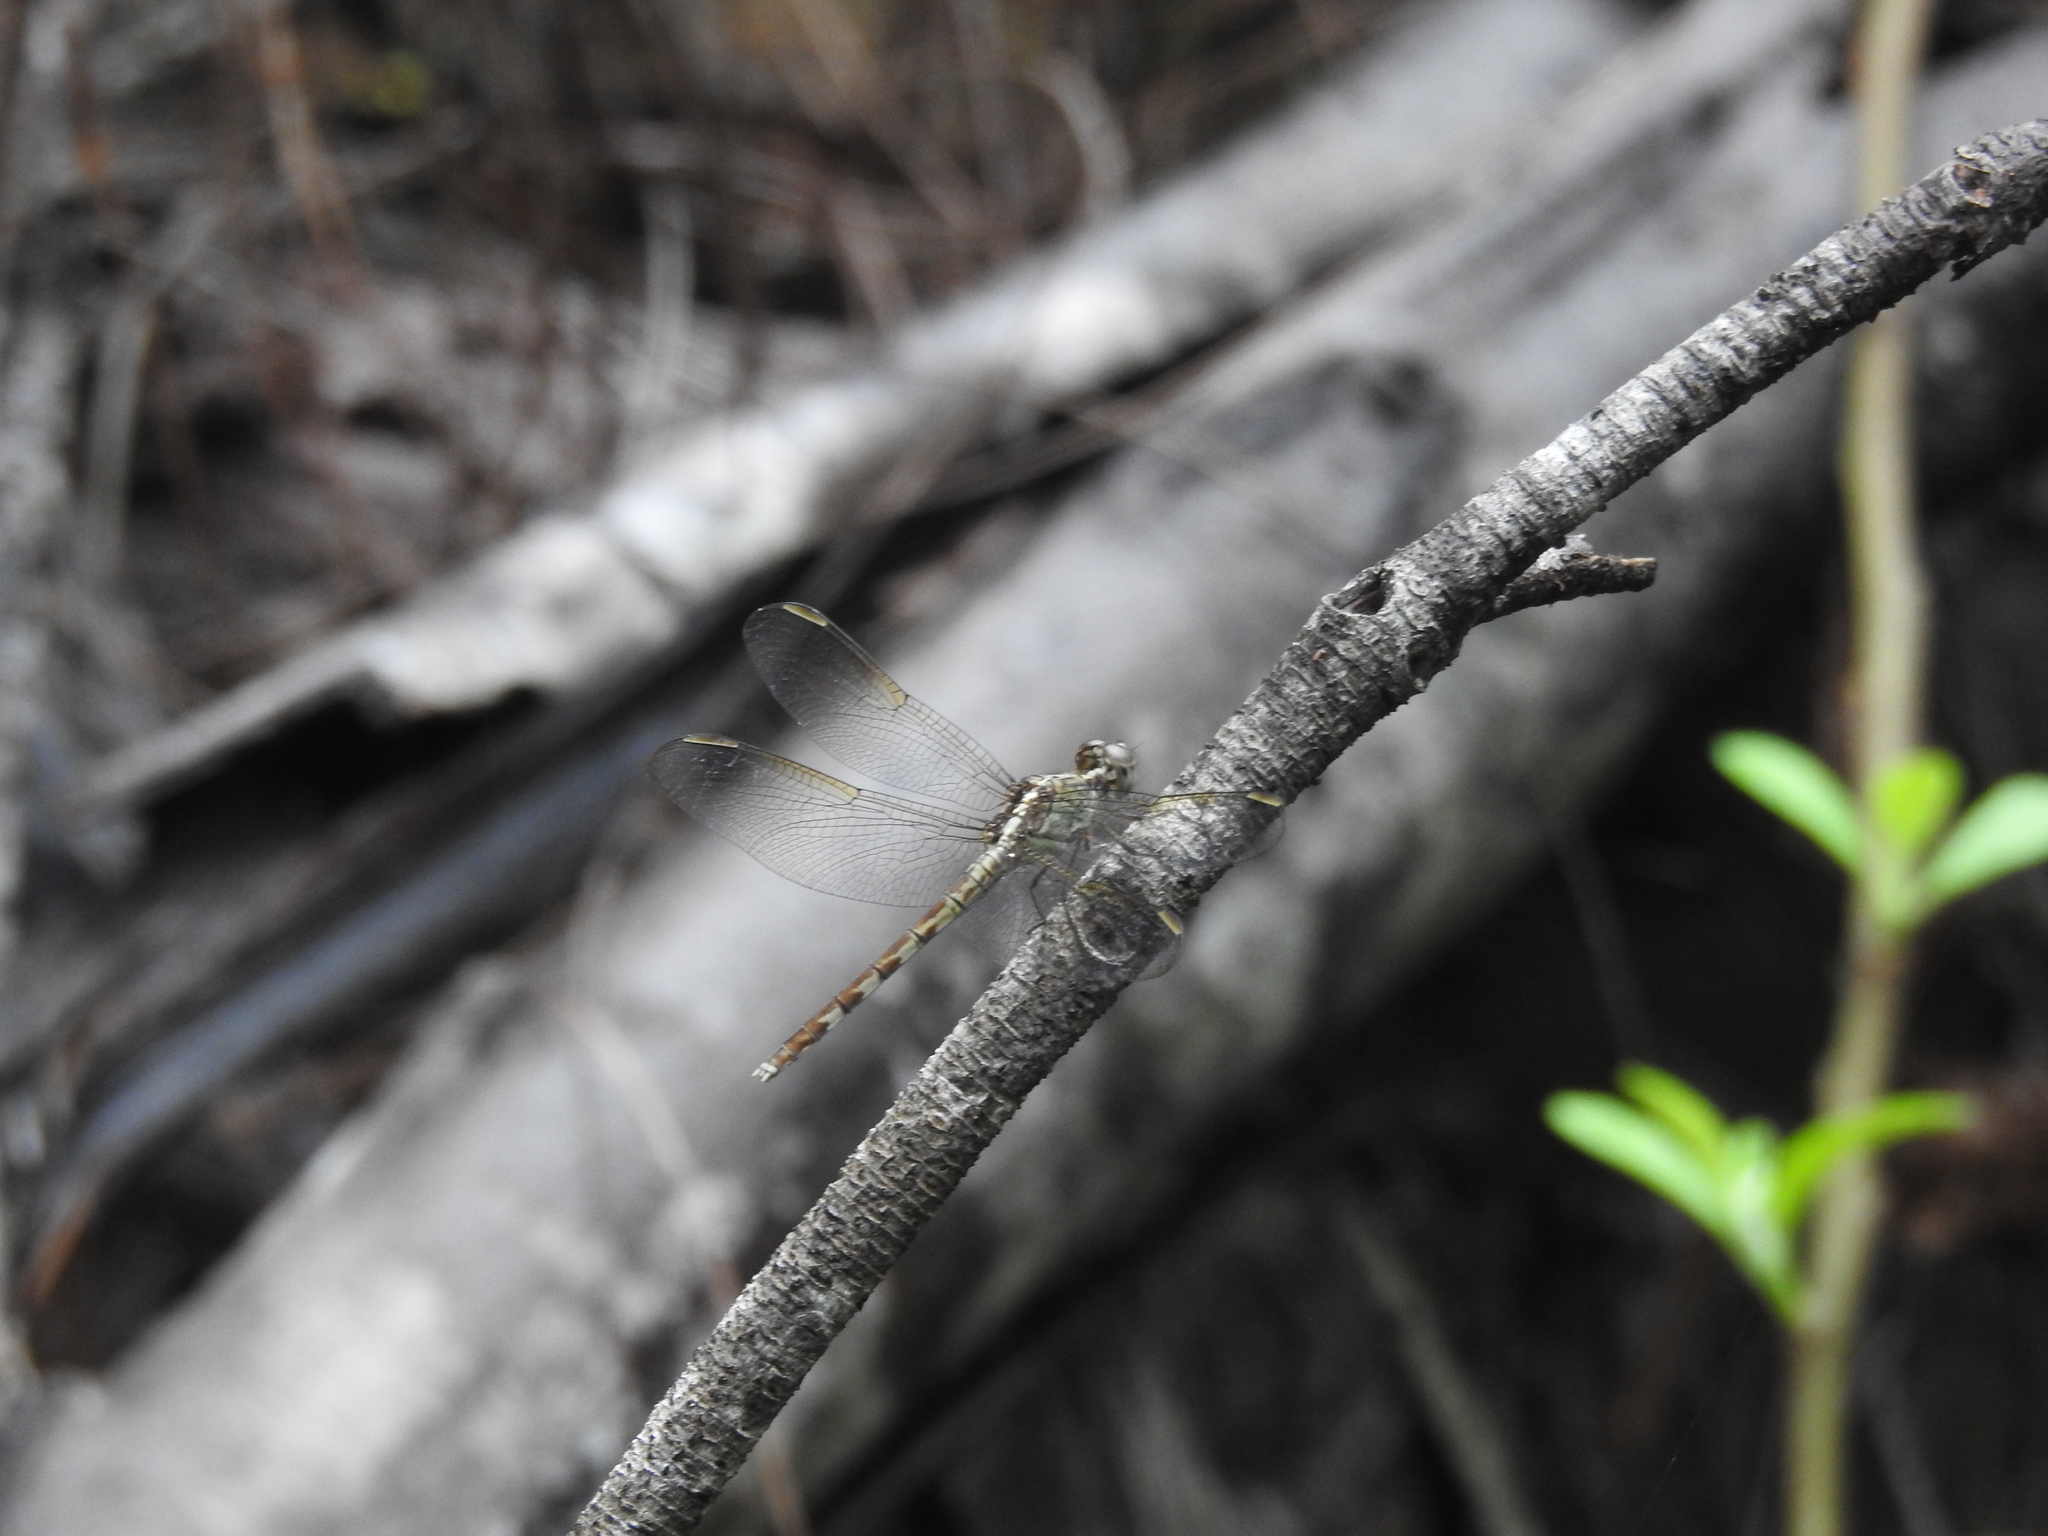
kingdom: Animalia
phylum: Arthropoda
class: Insecta
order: Odonata
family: Libellulidae
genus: Erythrodiplax
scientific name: Erythrodiplax umbrata
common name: Band-winged dragonlet
